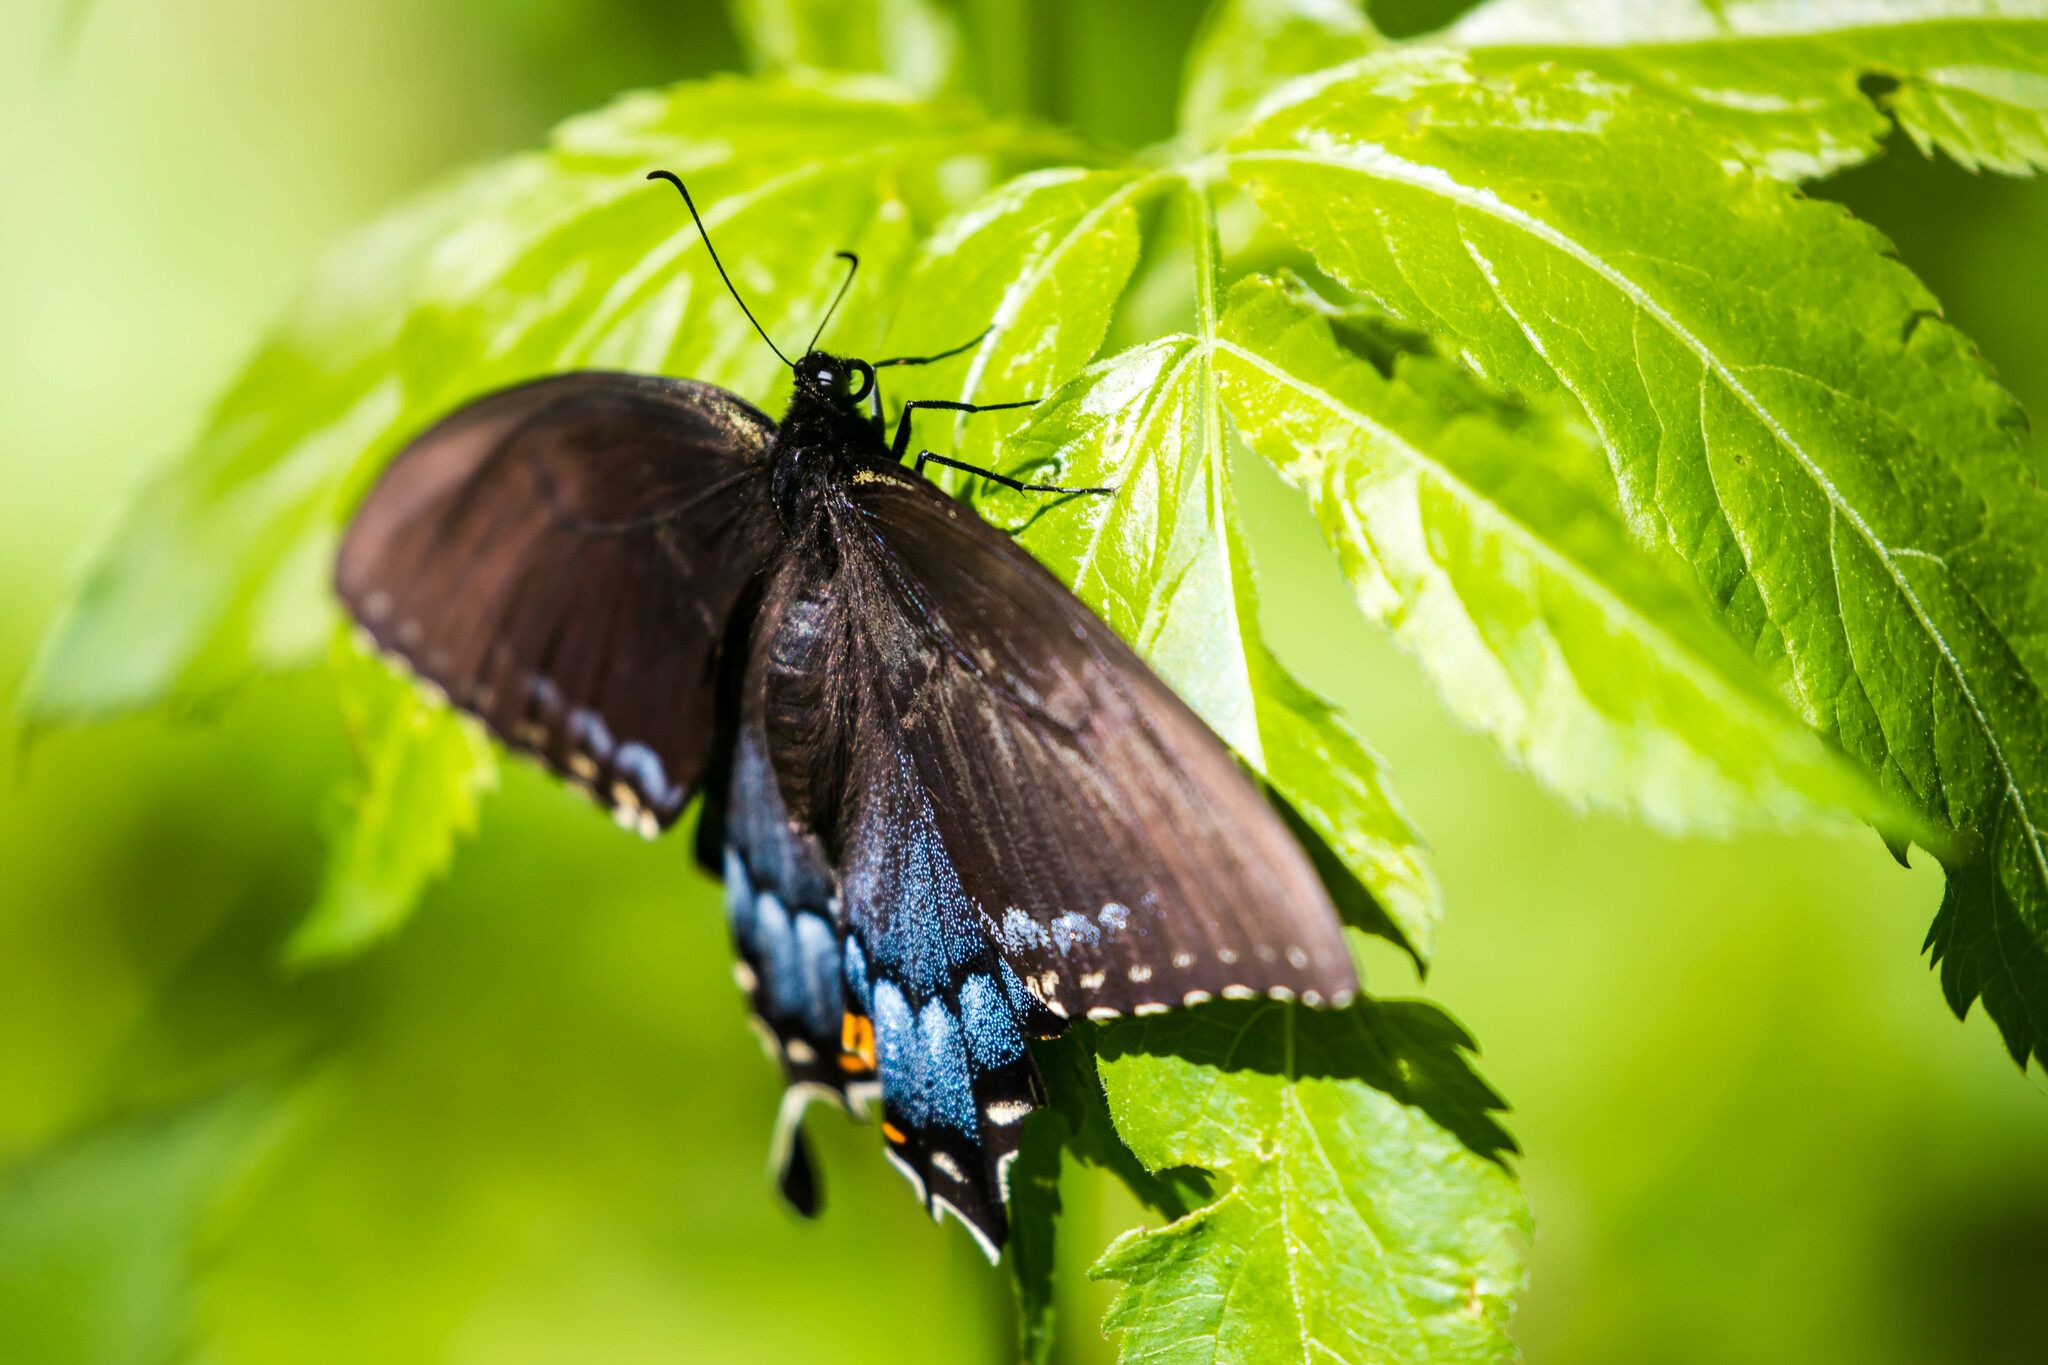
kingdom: Animalia
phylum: Arthropoda
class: Insecta
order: Lepidoptera
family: Papilionidae
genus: Papilio
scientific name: Papilio glaucus
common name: Tiger swallowtail
